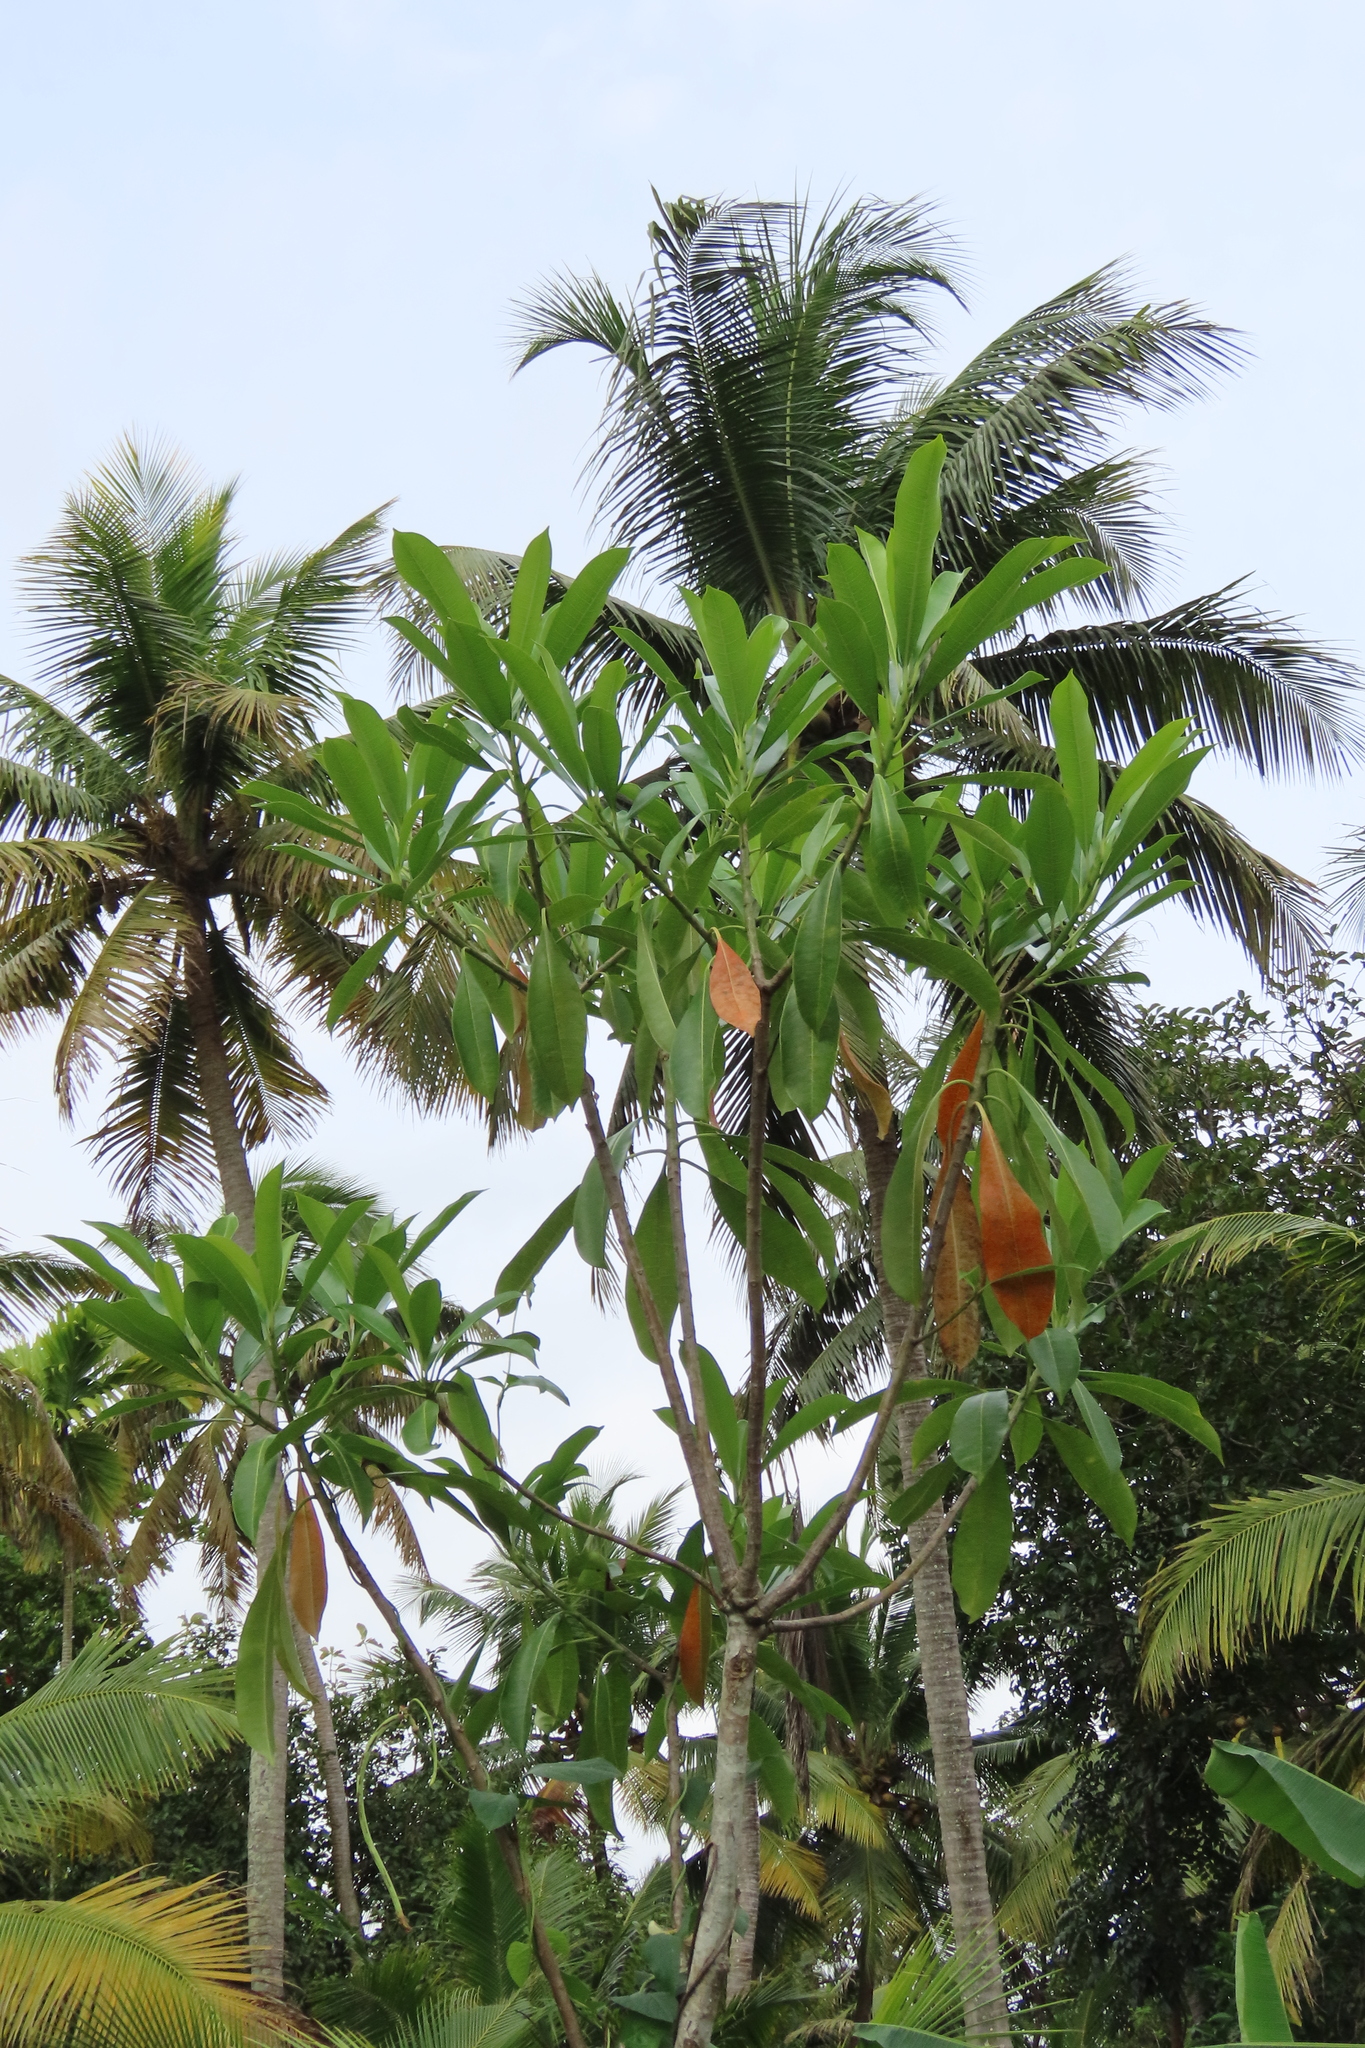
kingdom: Plantae
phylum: Tracheophyta
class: Magnoliopsida
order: Gentianales
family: Apocynaceae
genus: Cerbera
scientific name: Cerbera odollam
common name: Pong-pong
